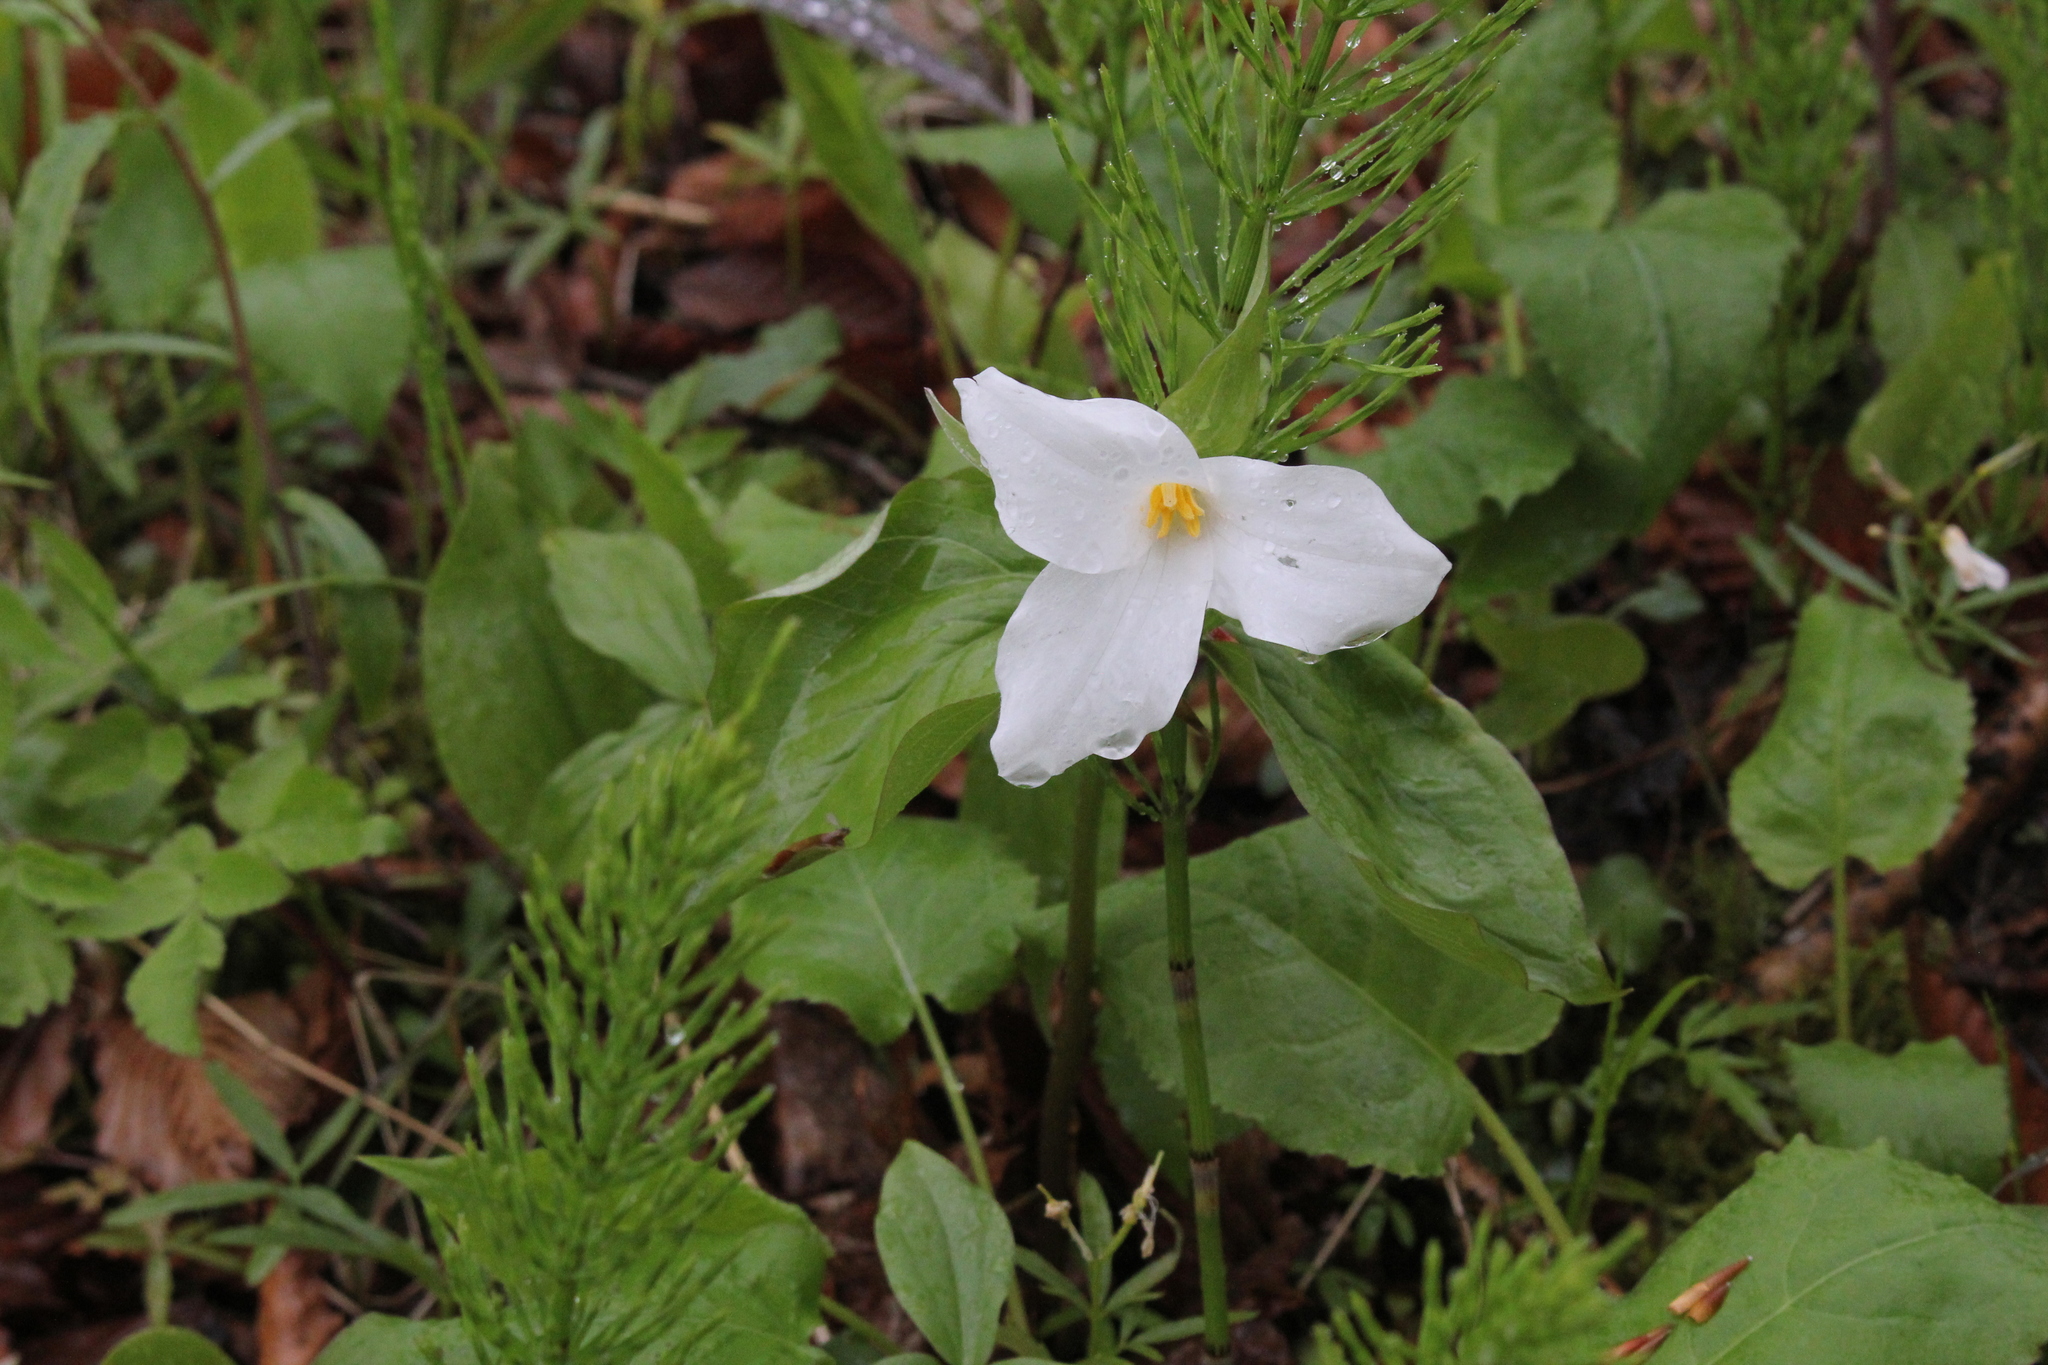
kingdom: Plantae
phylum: Tracheophyta
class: Liliopsida
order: Liliales
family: Melanthiaceae
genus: Trillium
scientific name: Trillium grandiflorum
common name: Great white trillium
